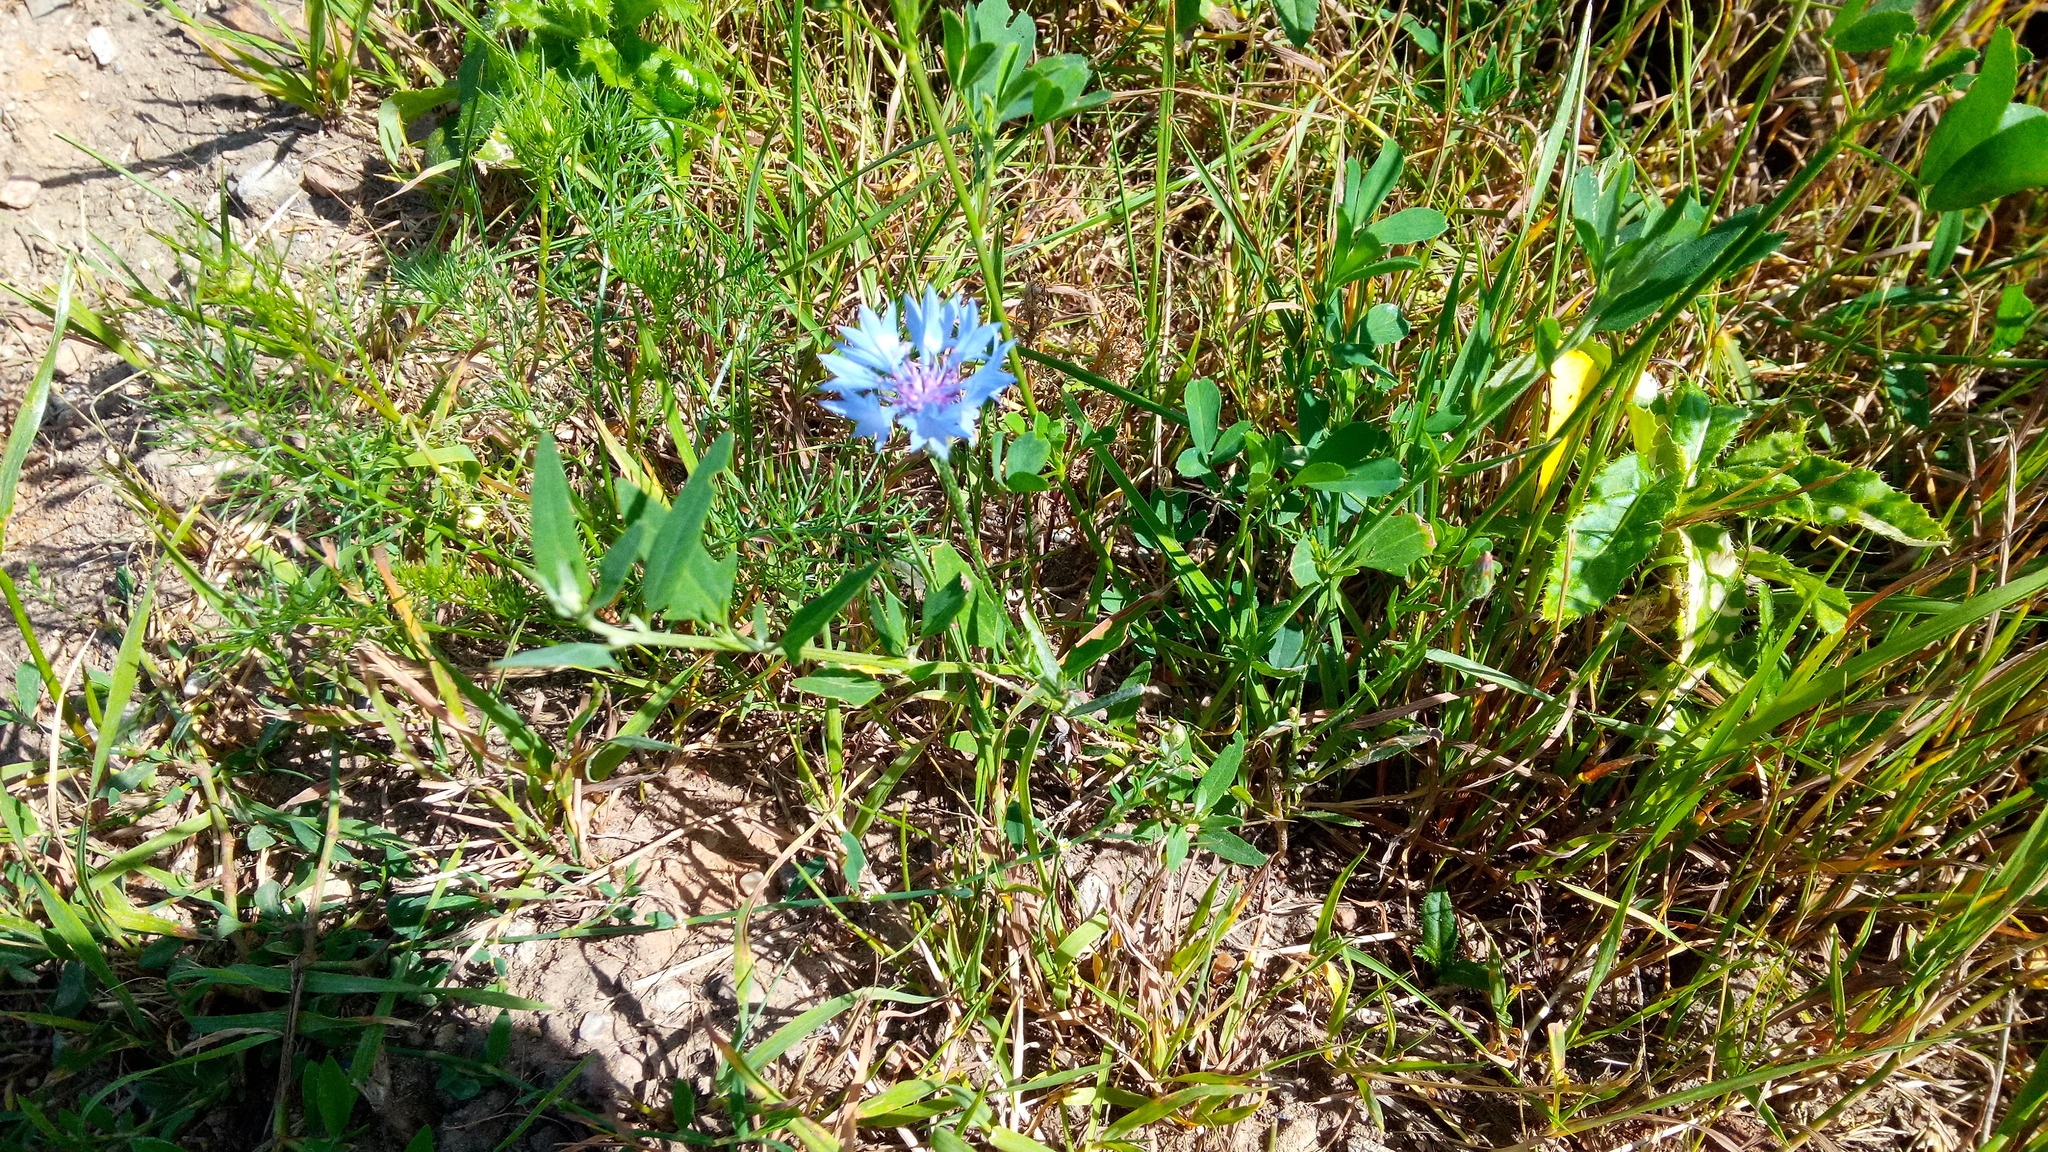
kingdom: Plantae
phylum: Tracheophyta
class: Magnoliopsida
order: Asterales
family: Asteraceae
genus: Centaurea
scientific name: Centaurea cyanus
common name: Cornflower
